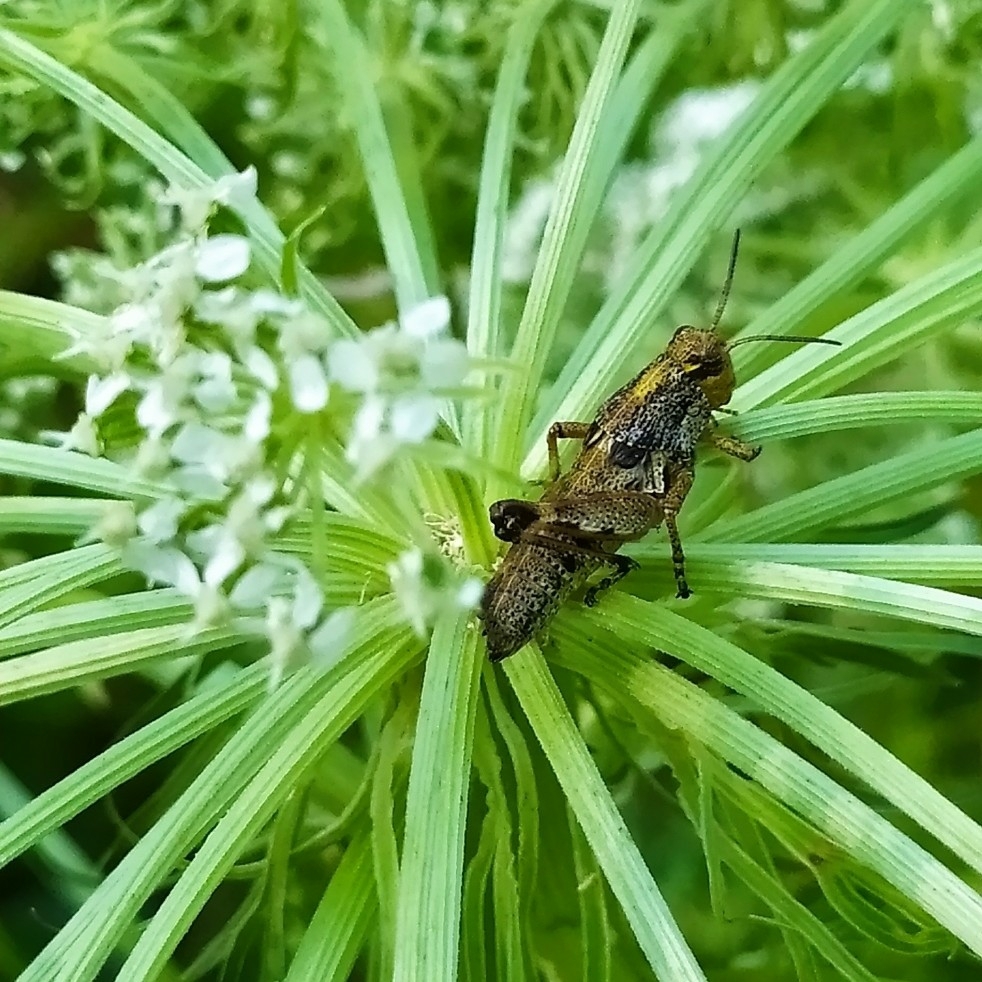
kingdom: Animalia
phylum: Arthropoda
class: Insecta
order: Orthoptera
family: Acrididae
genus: Podisma
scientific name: Podisma pedestris
